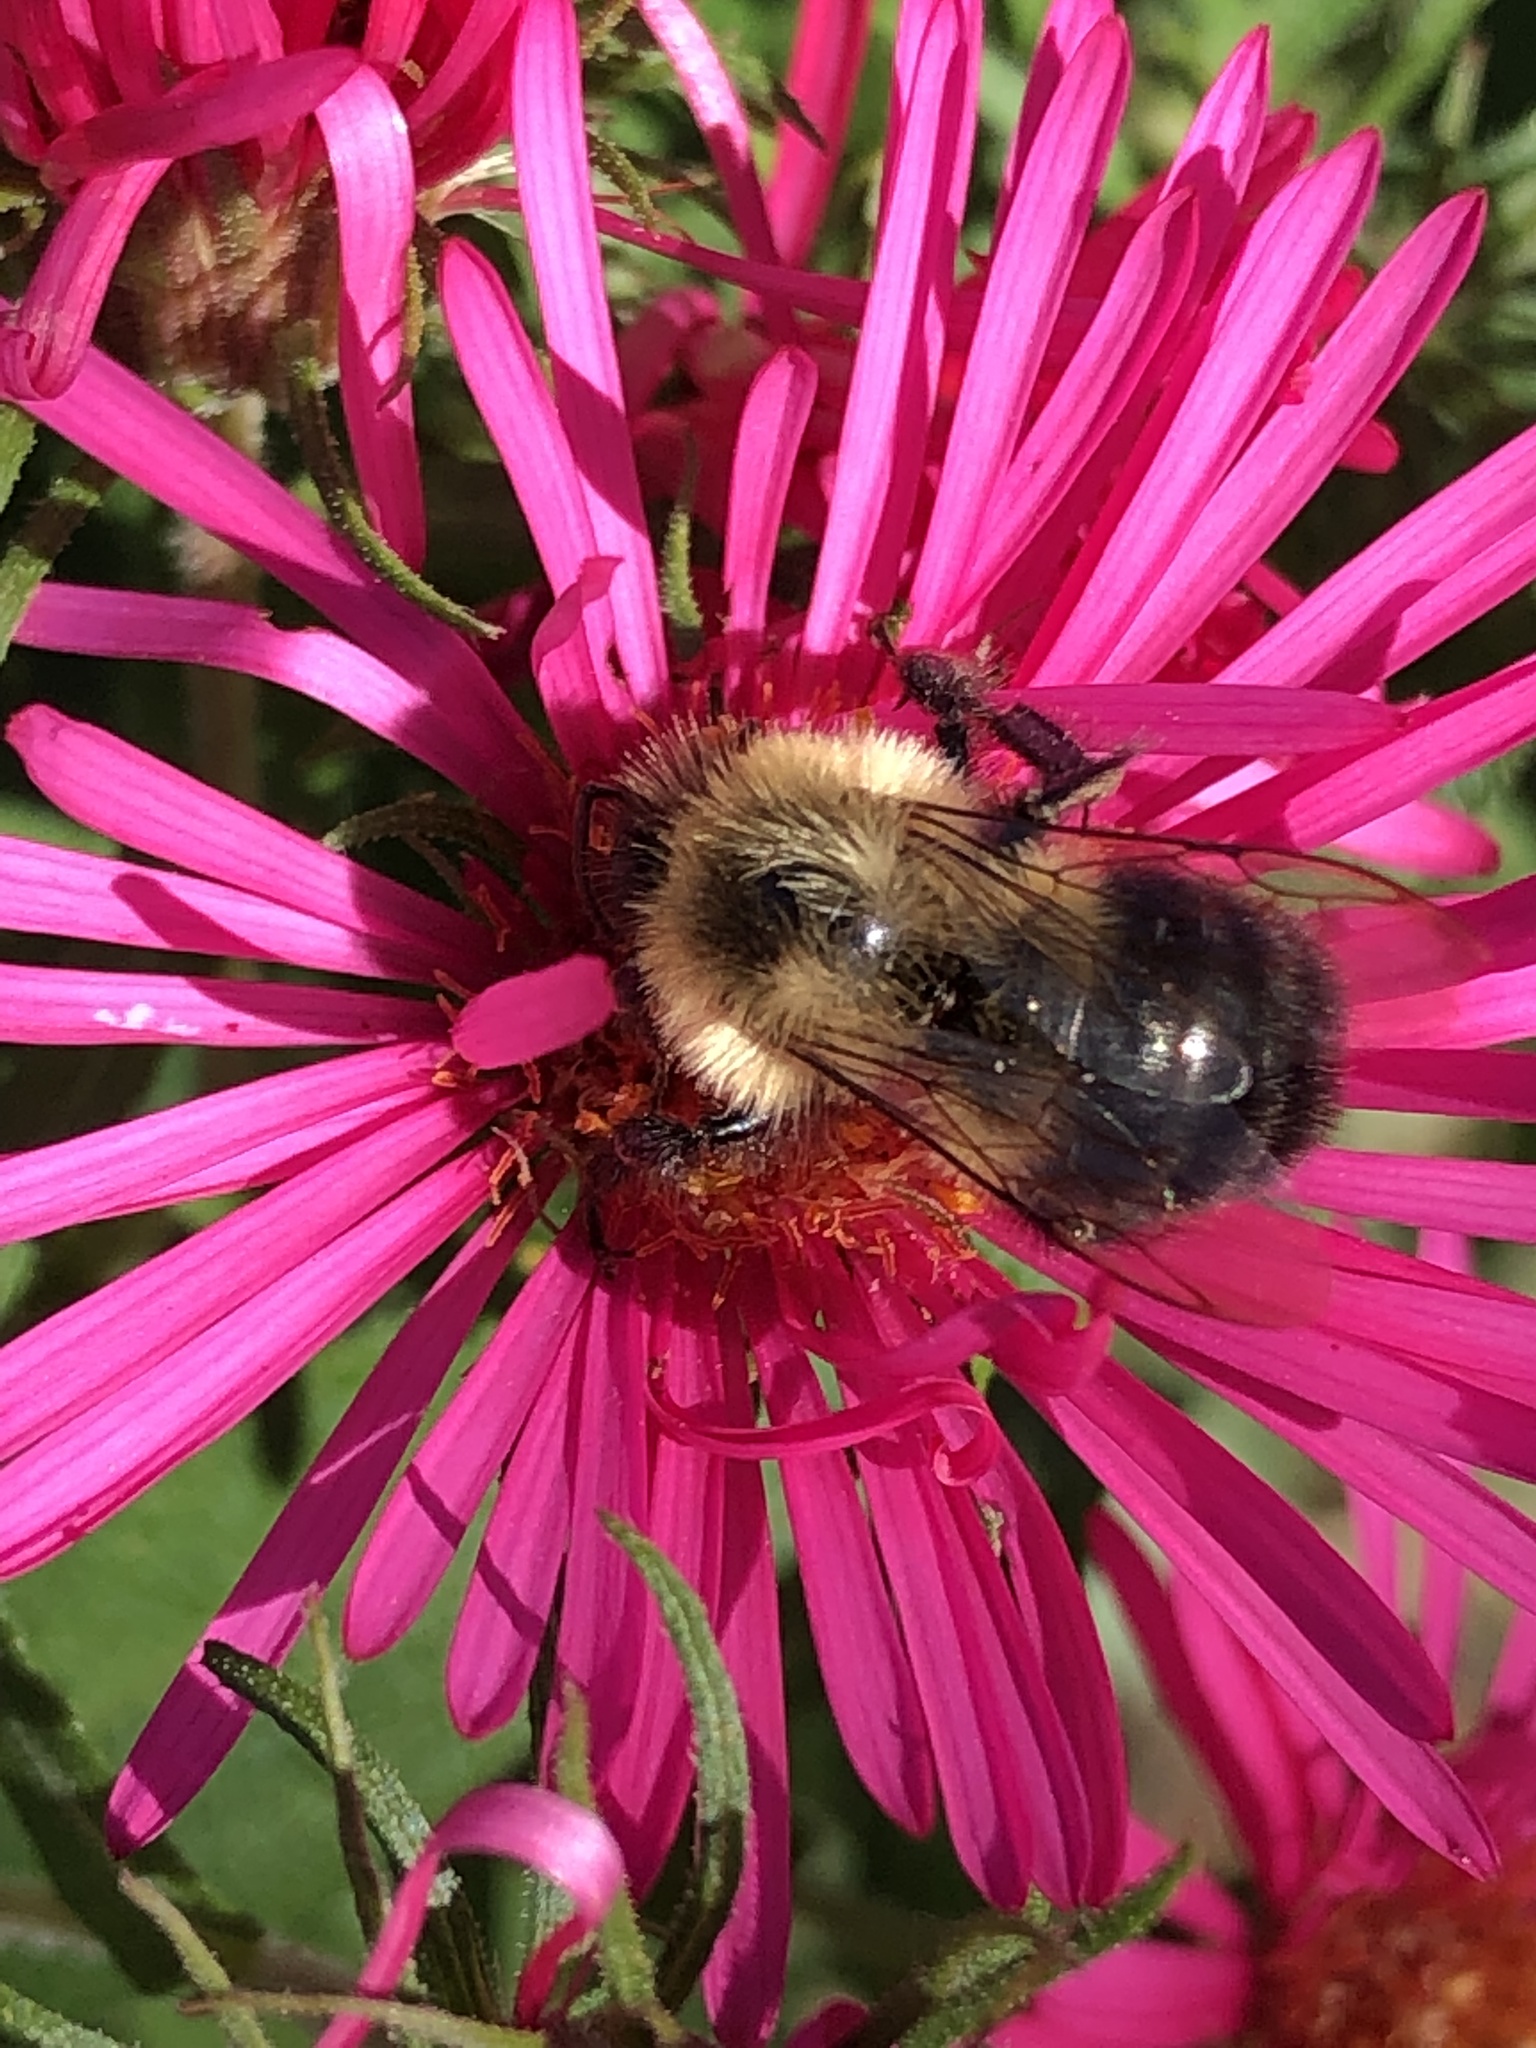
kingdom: Animalia
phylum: Arthropoda
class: Insecta
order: Hymenoptera
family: Apidae
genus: Bombus
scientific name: Bombus impatiens
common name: Common eastern bumble bee
